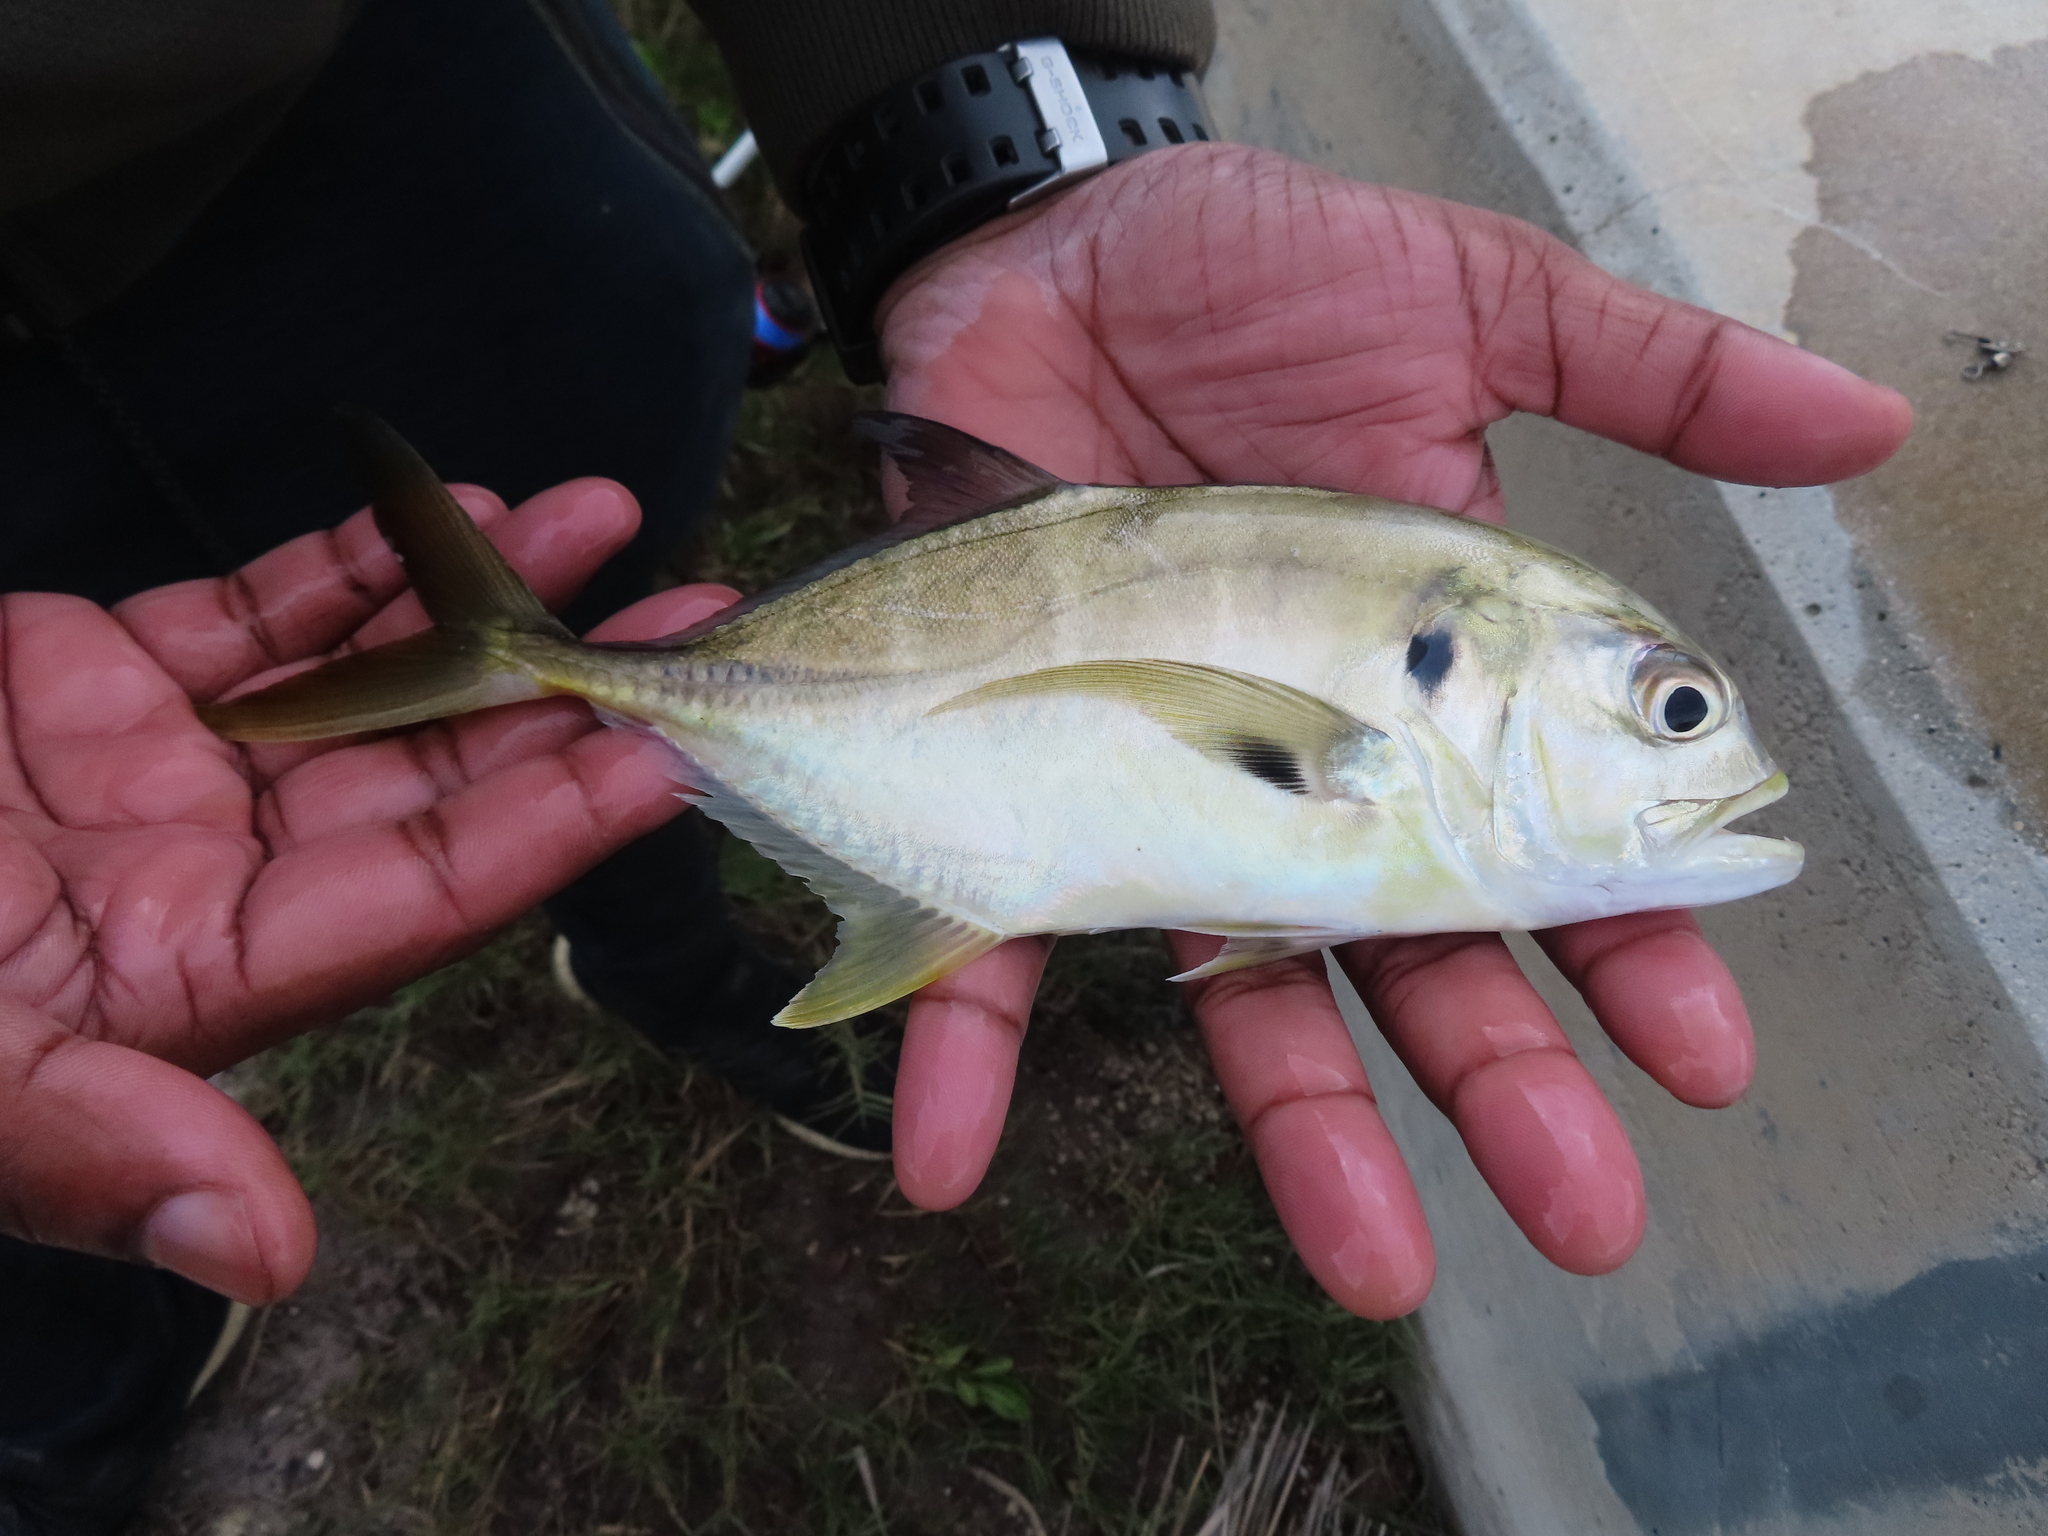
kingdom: Animalia
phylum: Chordata
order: Perciformes
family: Carangidae
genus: Caranx
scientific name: Caranx hippos
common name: Common jack
